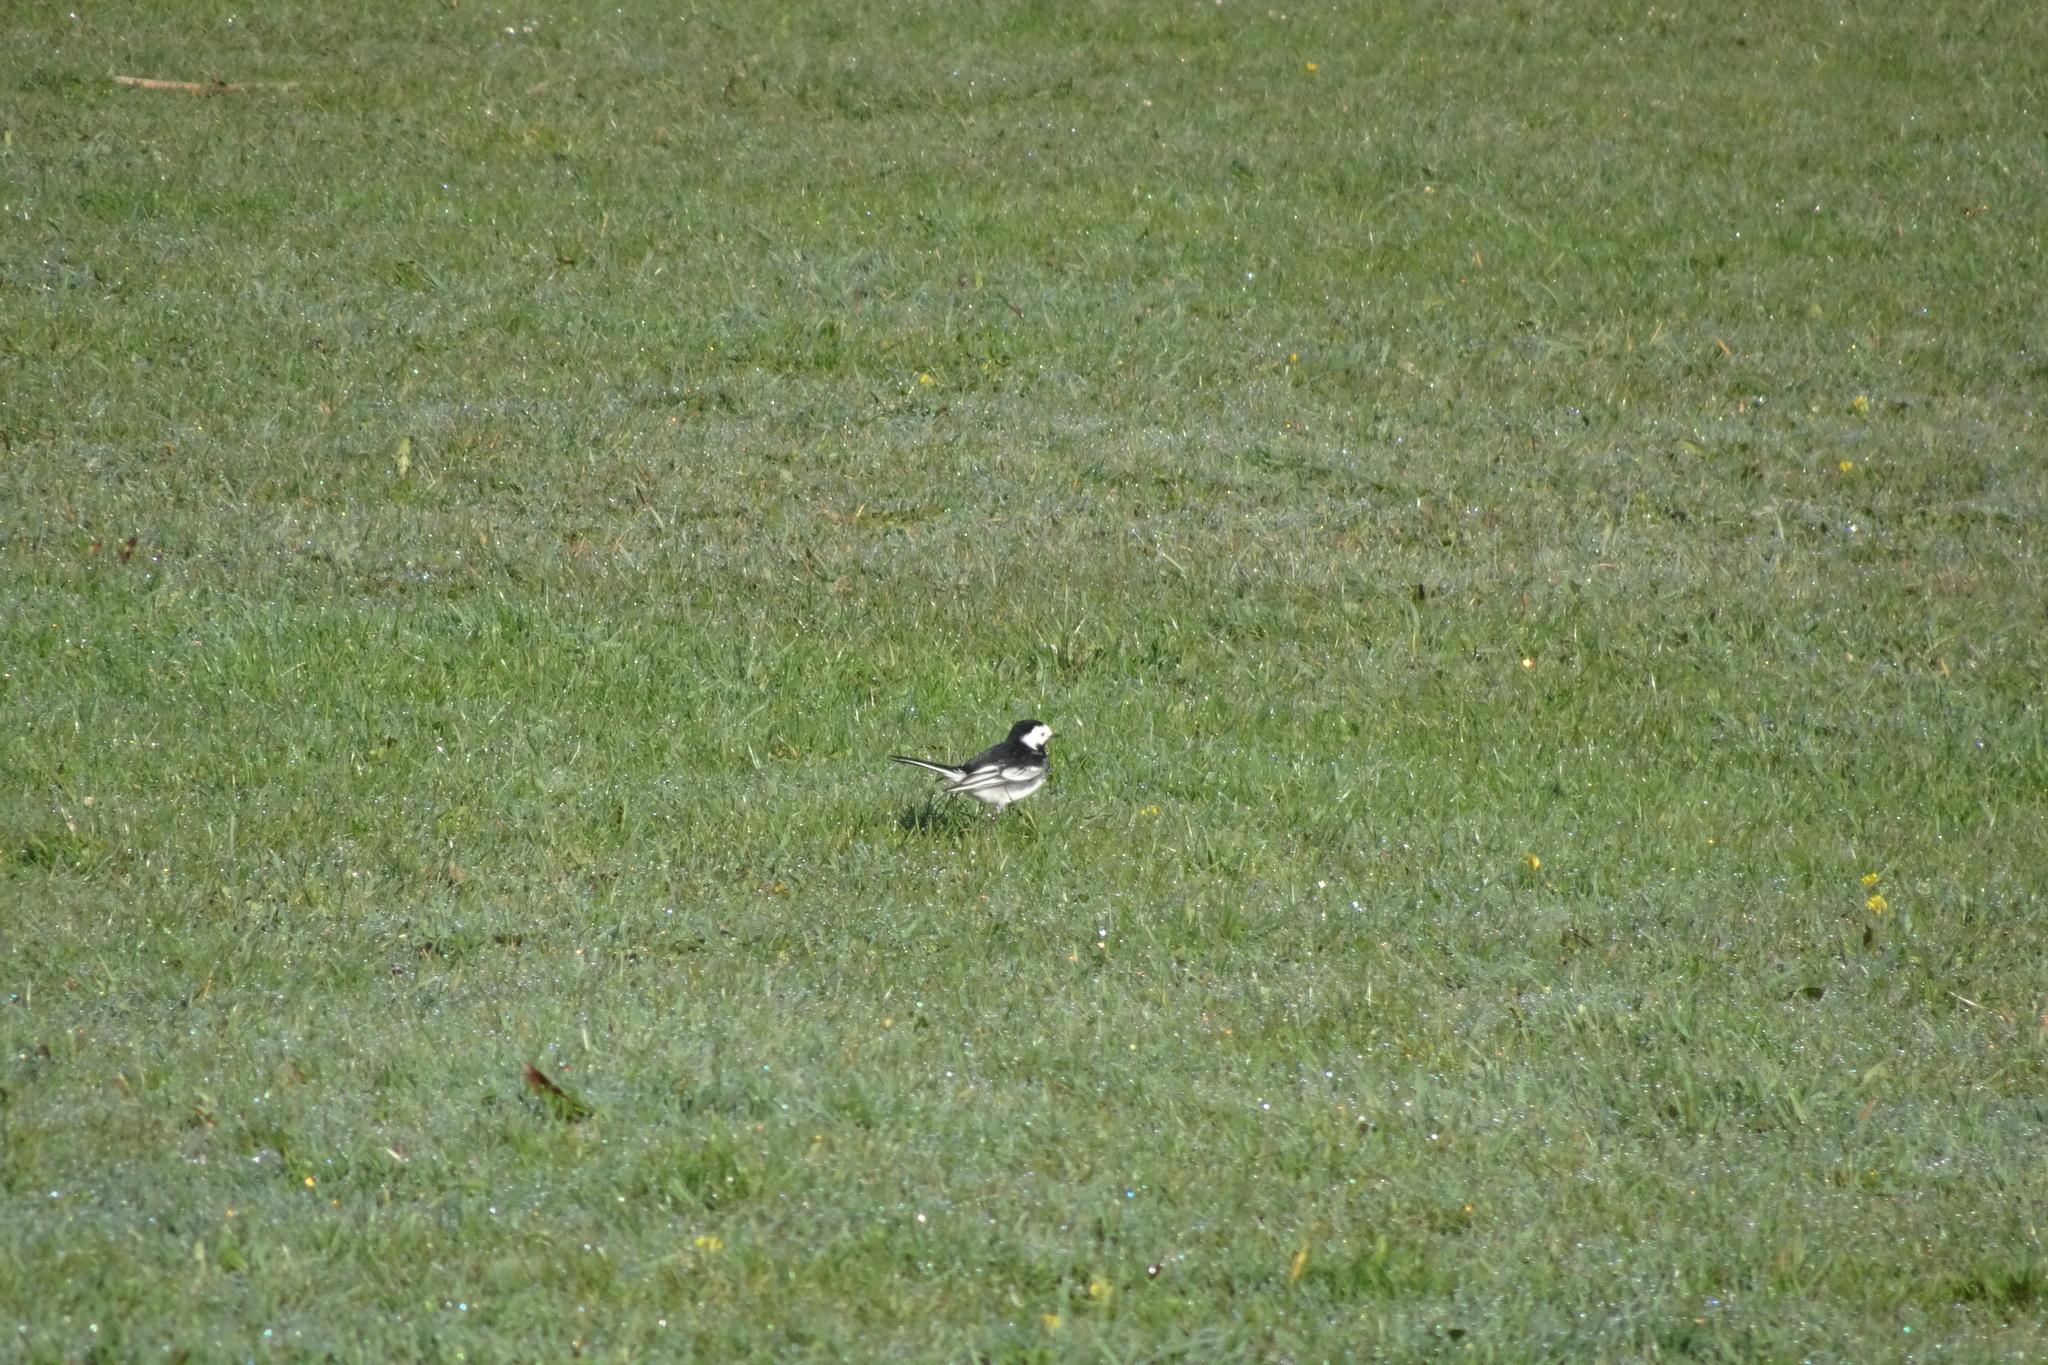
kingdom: Animalia
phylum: Chordata
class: Aves
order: Passeriformes
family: Motacillidae
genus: Motacilla
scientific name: Motacilla alba
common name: White wagtail
